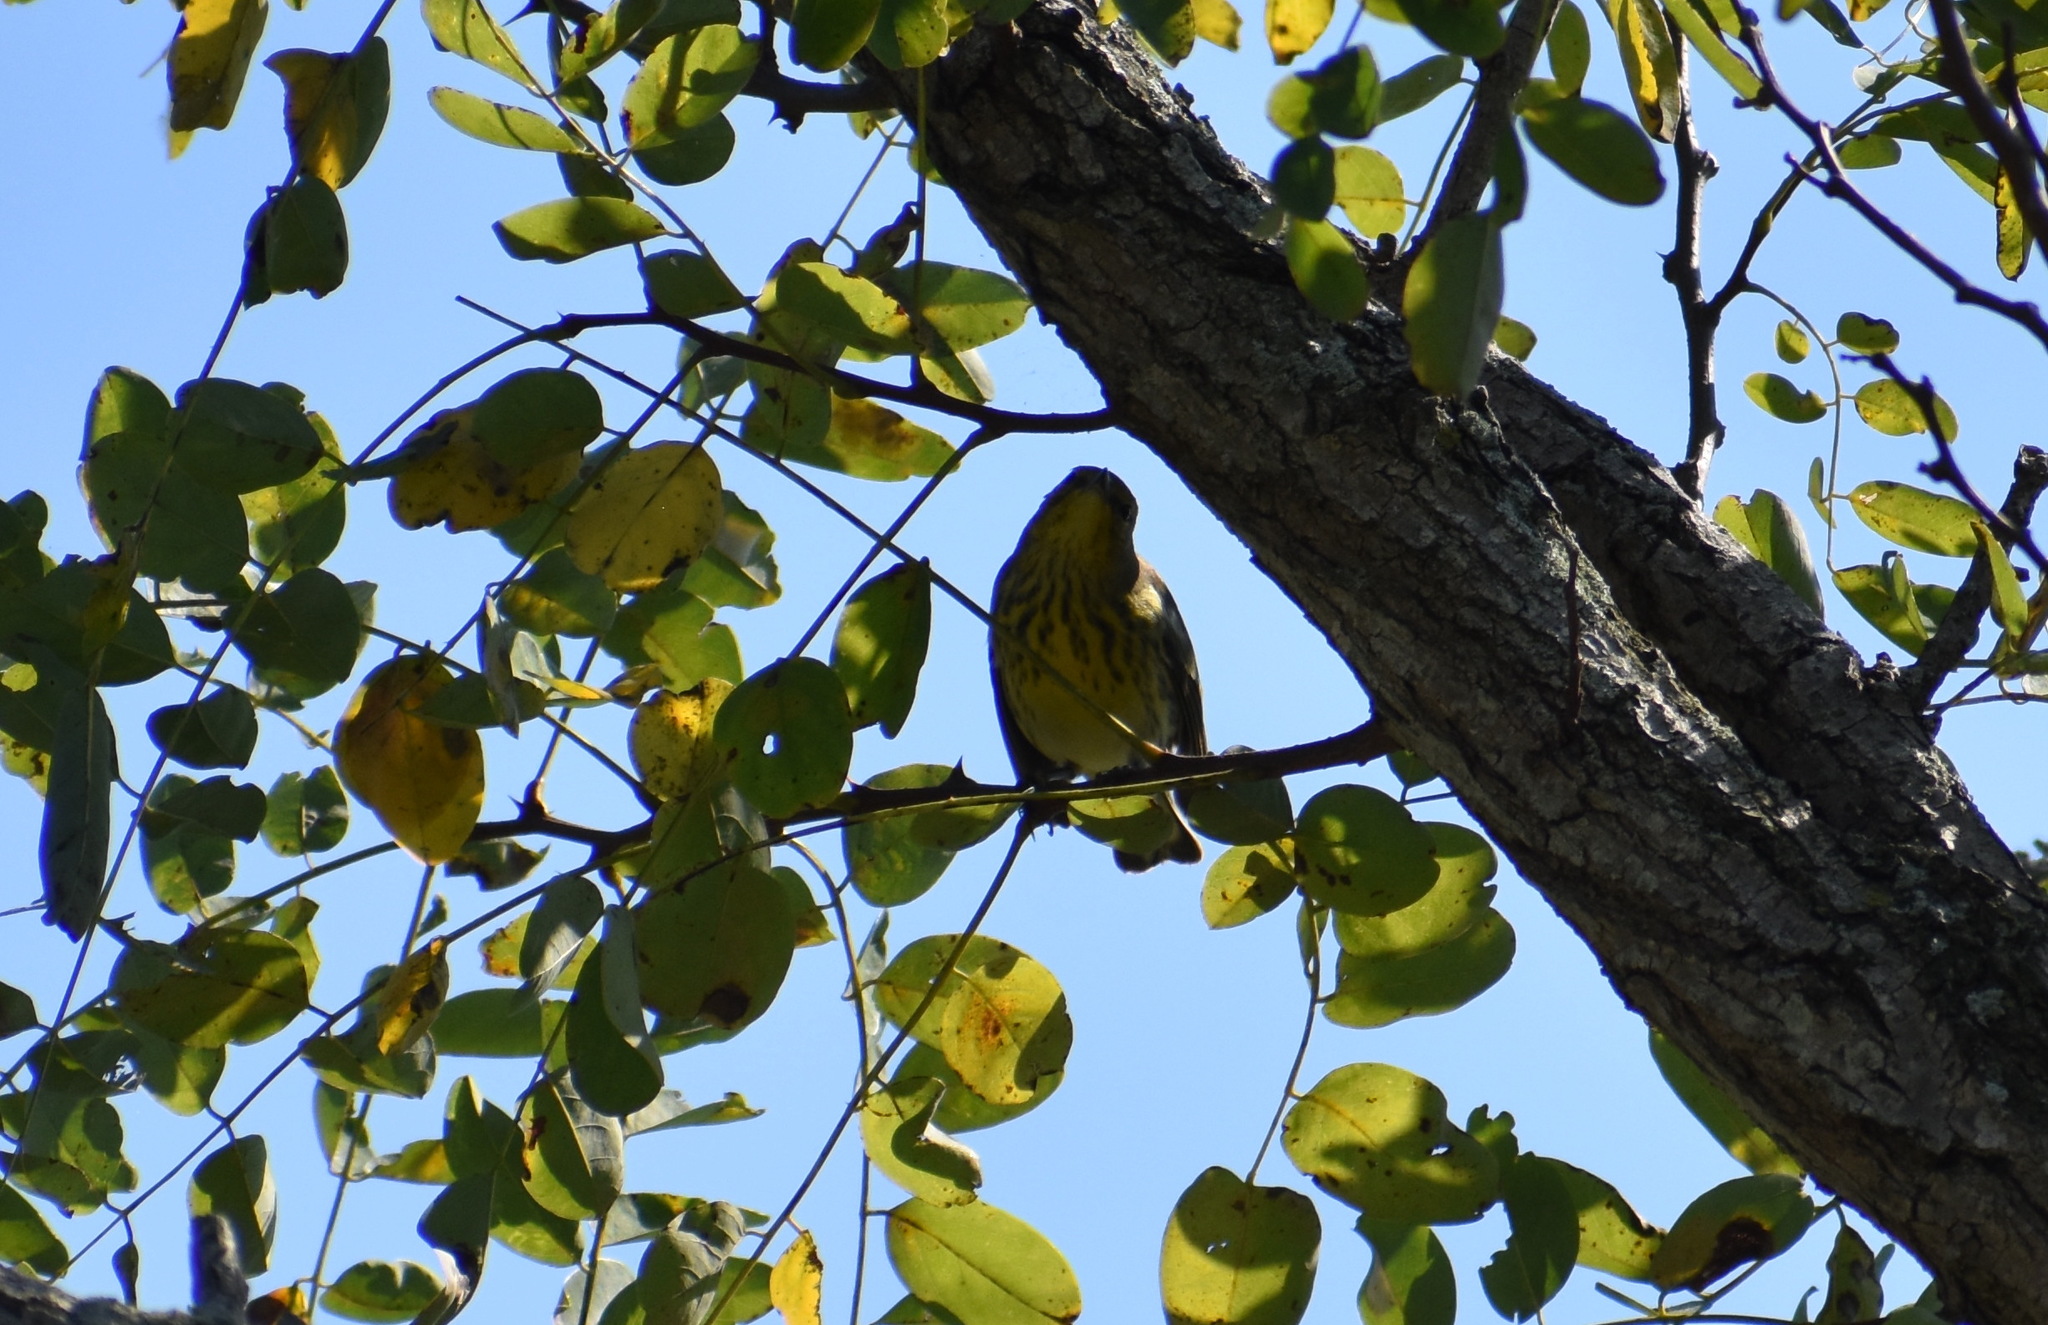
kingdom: Animalia
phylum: Chordata
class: Aves
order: Passeriformes
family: Parulidae
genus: Setophaga
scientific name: Setophaga tigrina
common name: Cape may warbler
